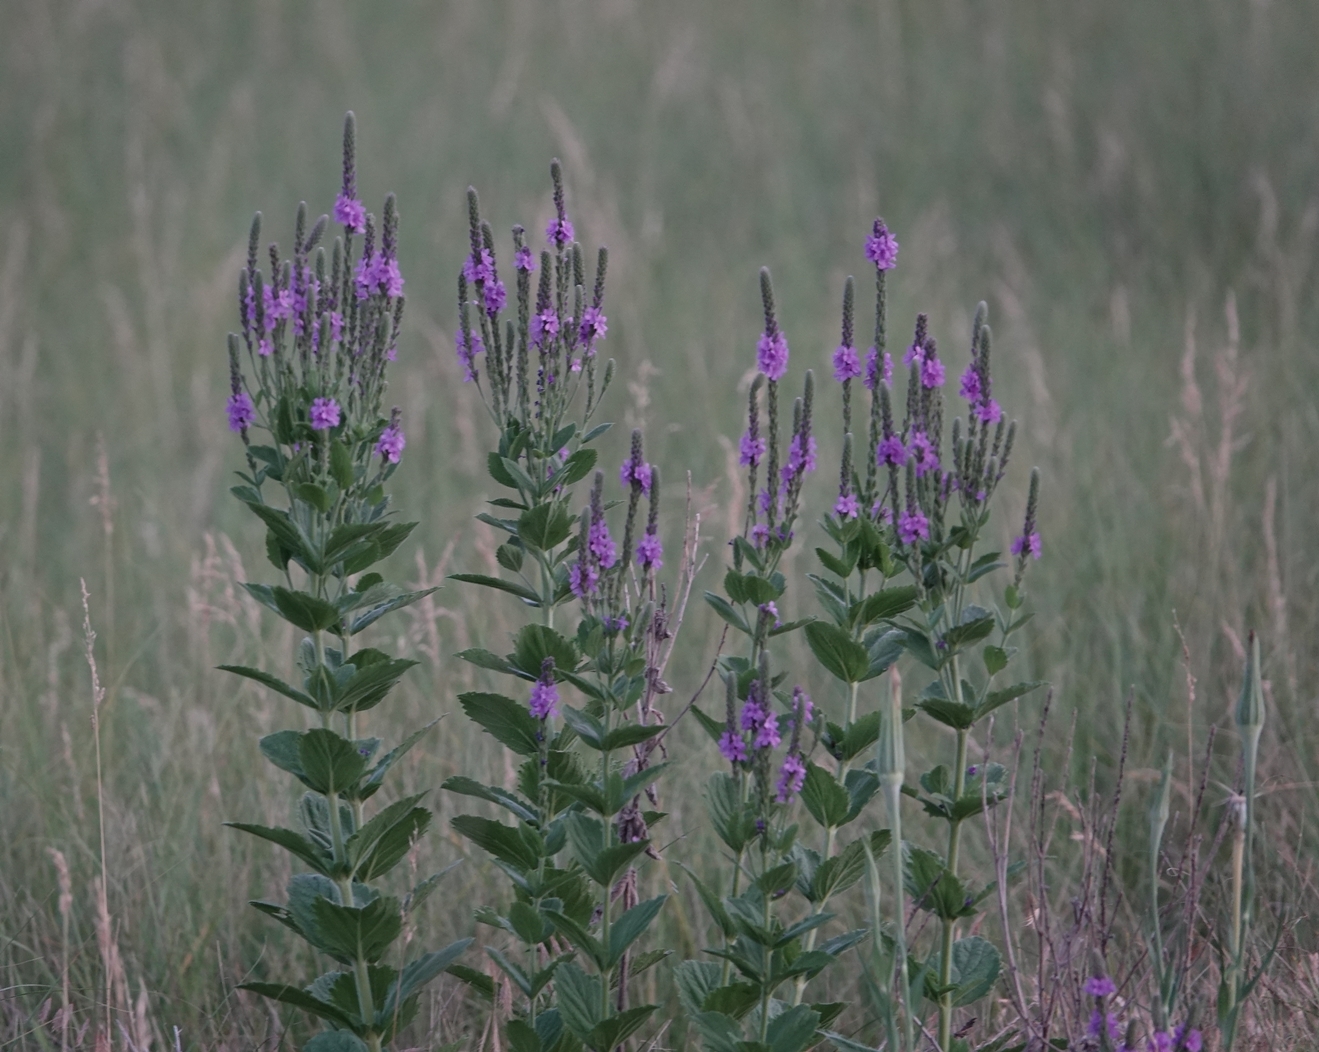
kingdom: Plantae
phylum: Tracheophyta
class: Magnoliopsida
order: Lamiales
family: Verbenaceae
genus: Verbena
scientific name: Verbena stricta
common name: Hoary vervain
